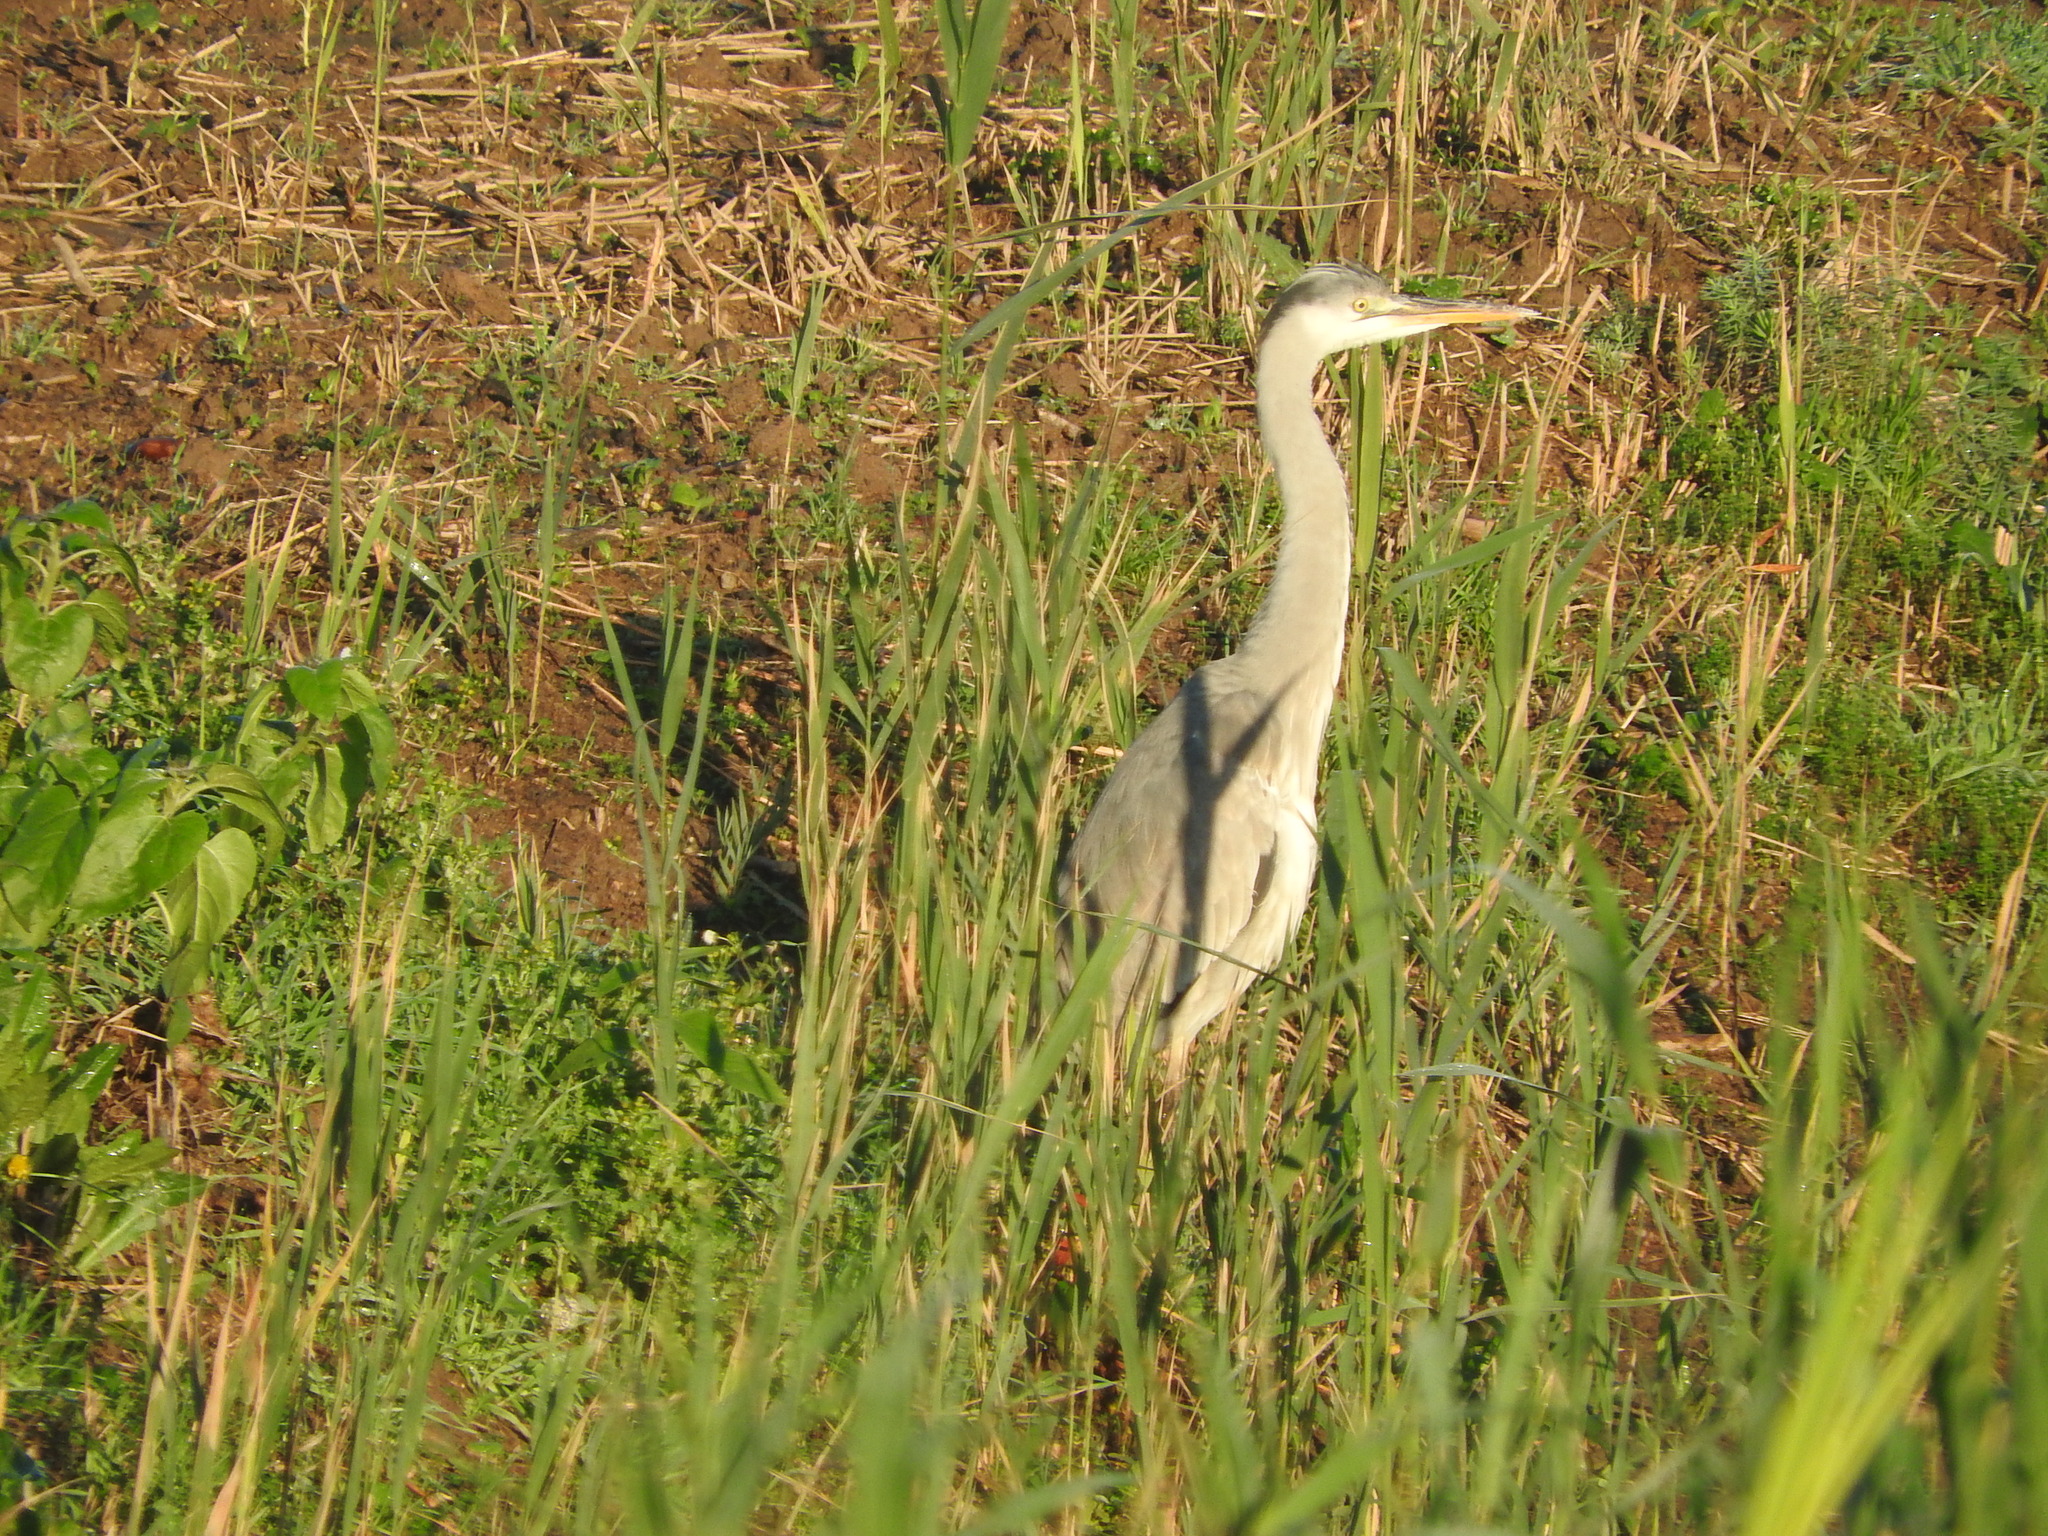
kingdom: Animalia
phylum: Chordata
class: Aves
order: Pelecaniformes
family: Ardeidae
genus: Ardea
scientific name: Ardea cinerea
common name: Grey heron
